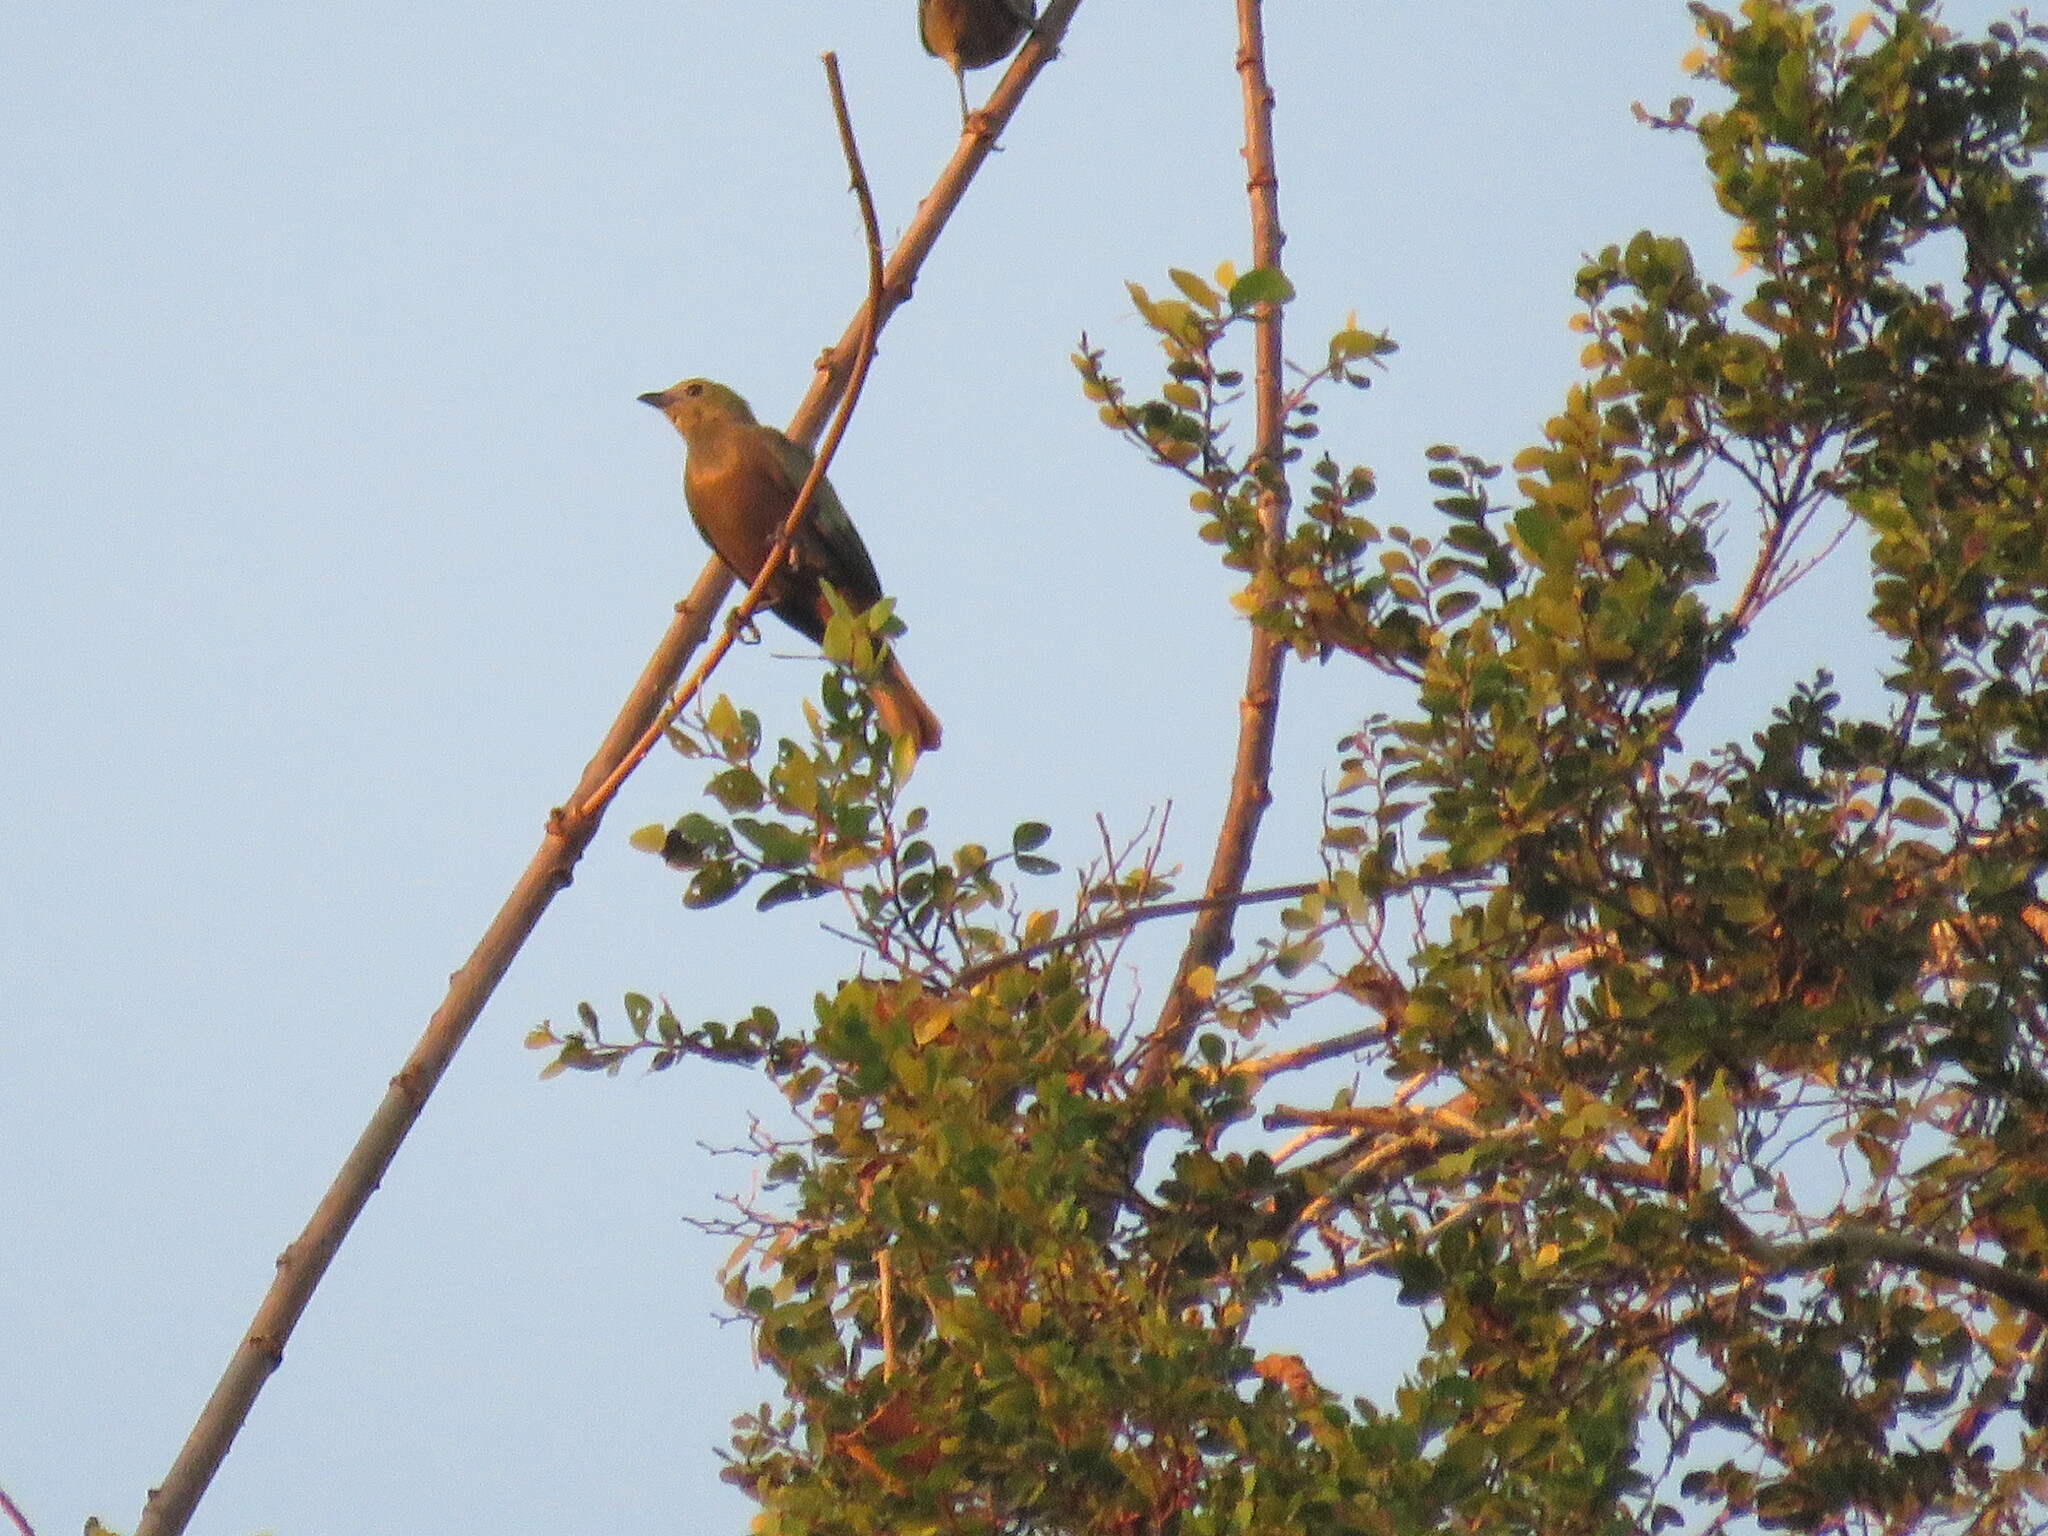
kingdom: Animalia
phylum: Chordata
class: Aves
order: Passeriformes
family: Thraupidae
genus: Thraupis
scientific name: Thraupis palmarum
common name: Palm tanager
